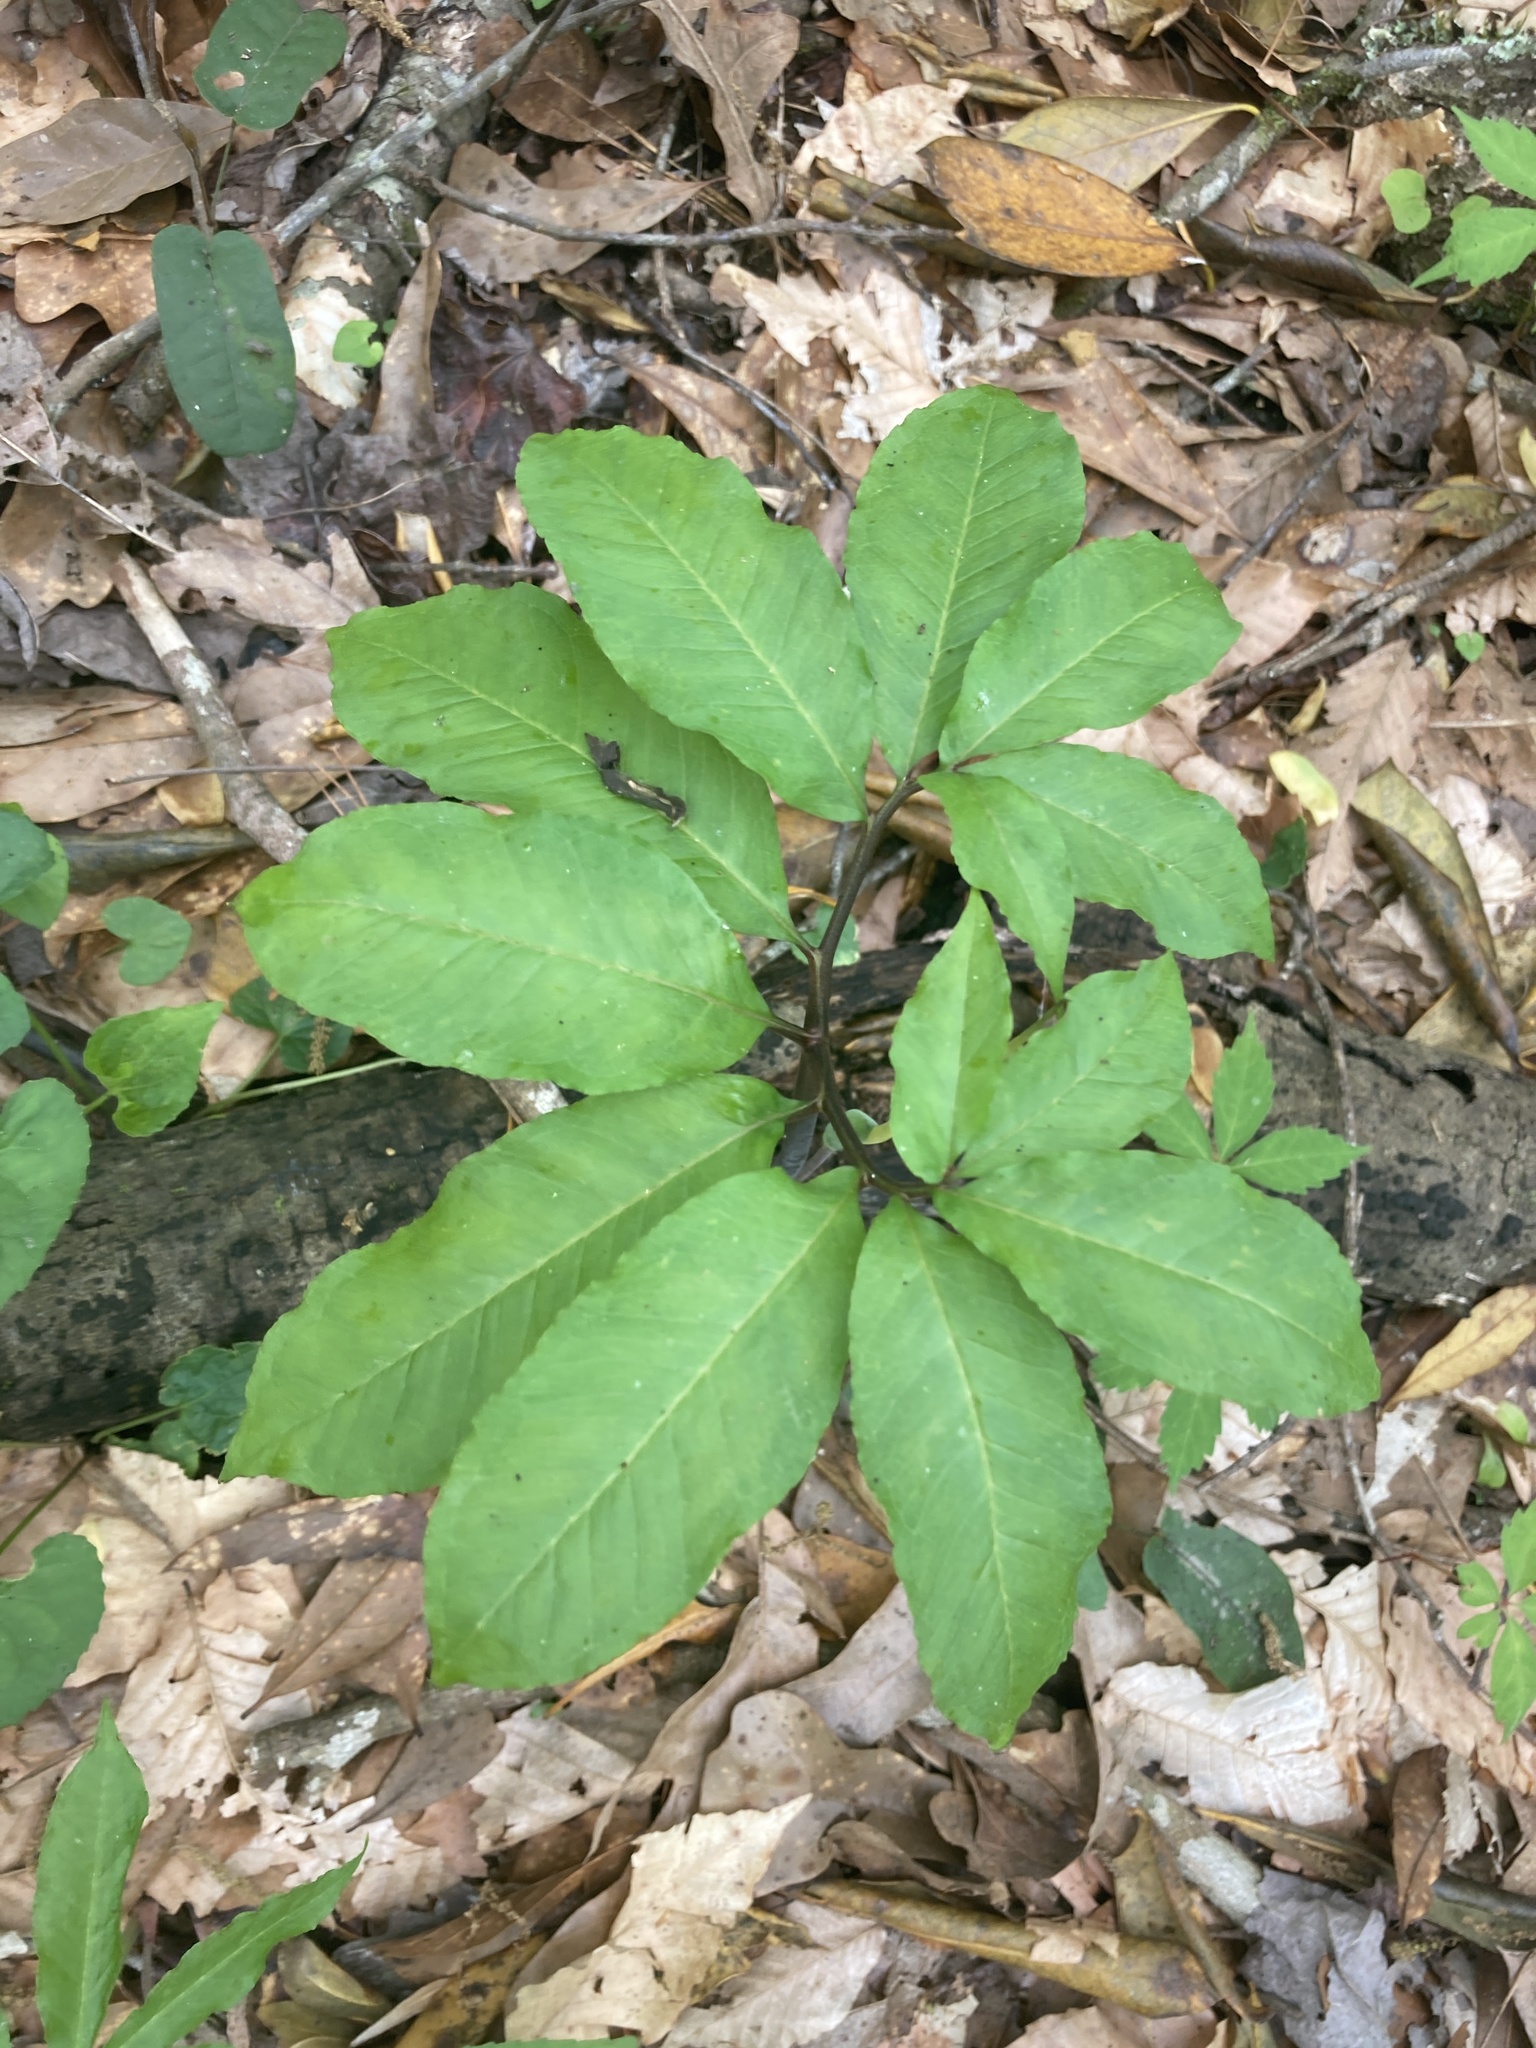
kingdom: Plantae
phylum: Tracheophyta
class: Liliopsida
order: Alismatales
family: Araceae
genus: Arisaema
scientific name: Arisaema dracontium
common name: Dragon-arum
